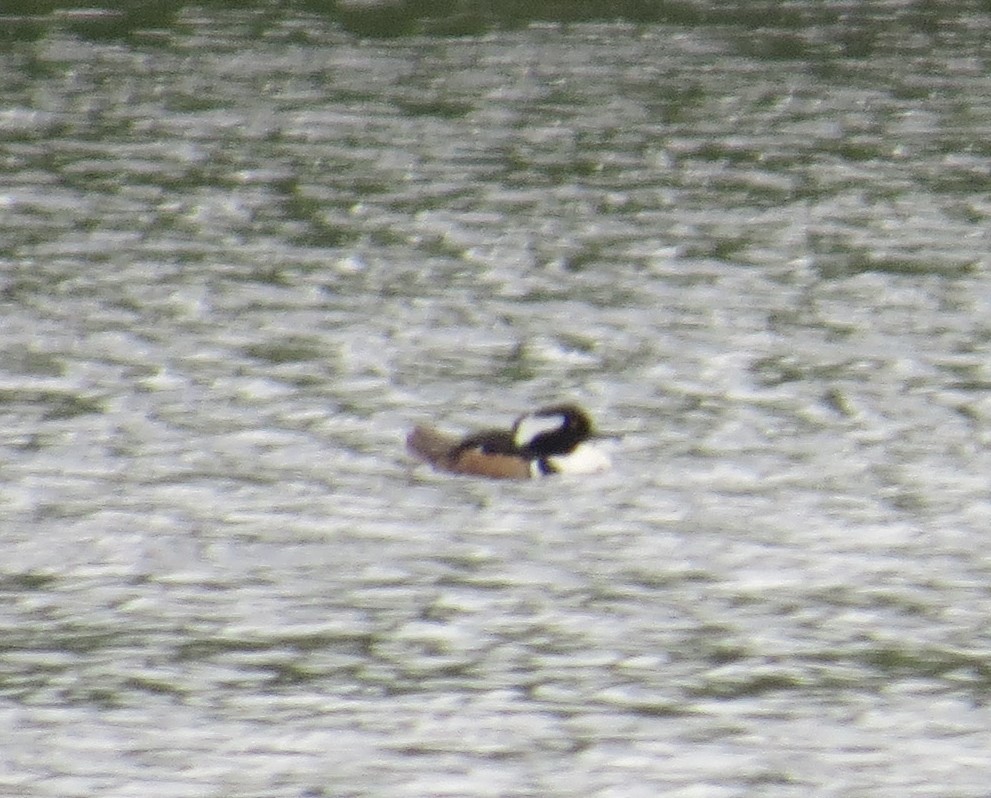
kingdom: Animalia
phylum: Chordata
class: Aves
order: Anseriformes
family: Anatidae
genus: Lophodytes
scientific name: Lophodytes cucullatus
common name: Hooded merganser
